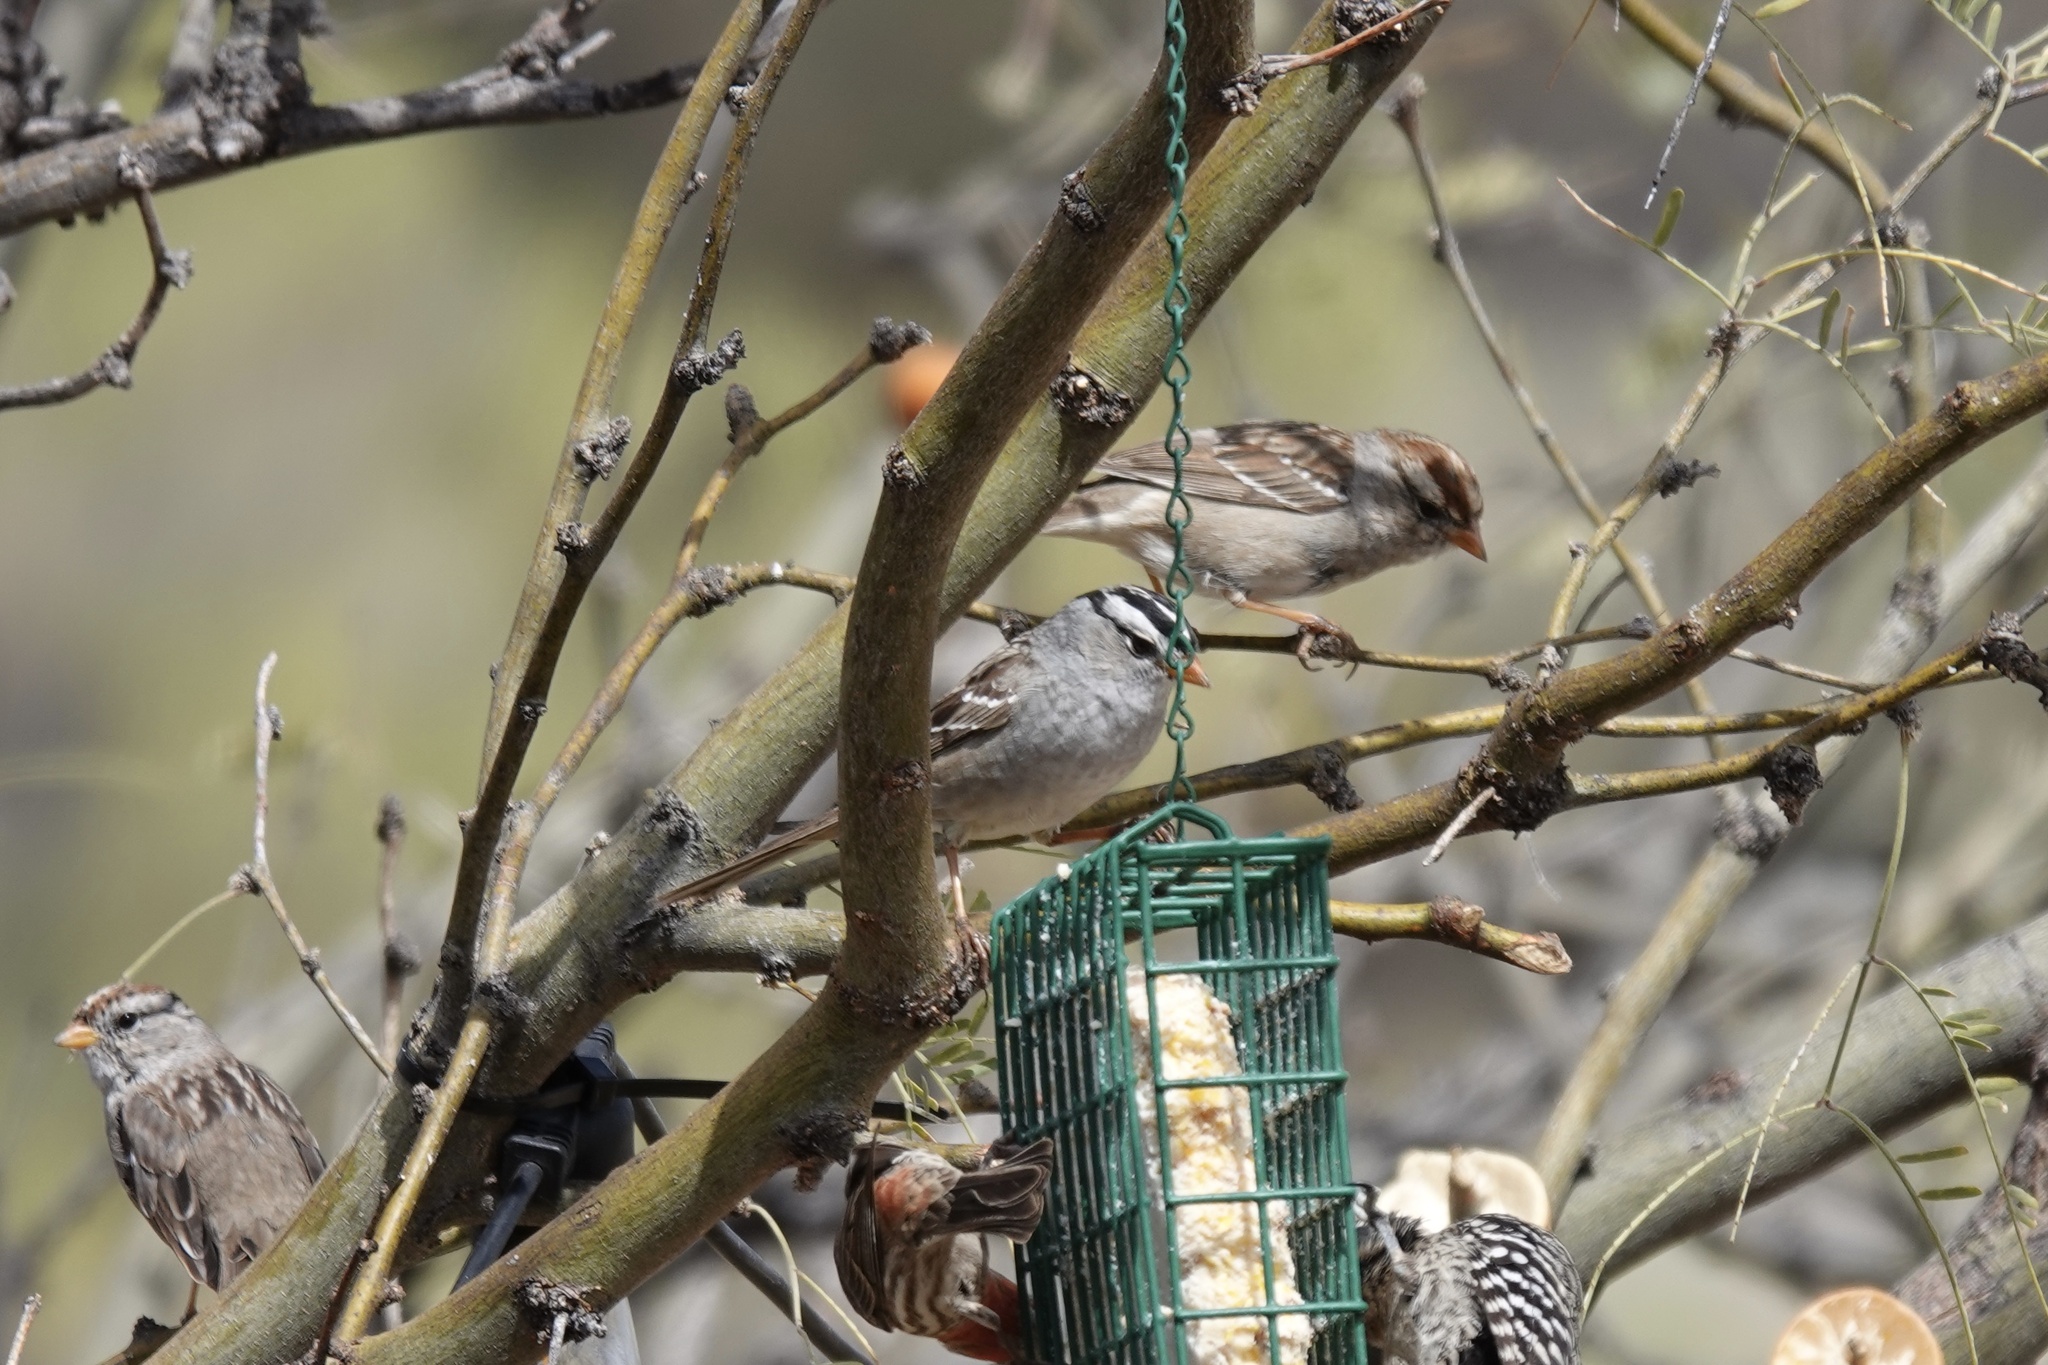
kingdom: Animalia
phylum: Chordata
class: Aves
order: Passeriformes
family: Passerellidae
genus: Zonotrichia
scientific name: Zonotrichia leucophrys
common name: White-crowned sparrow
